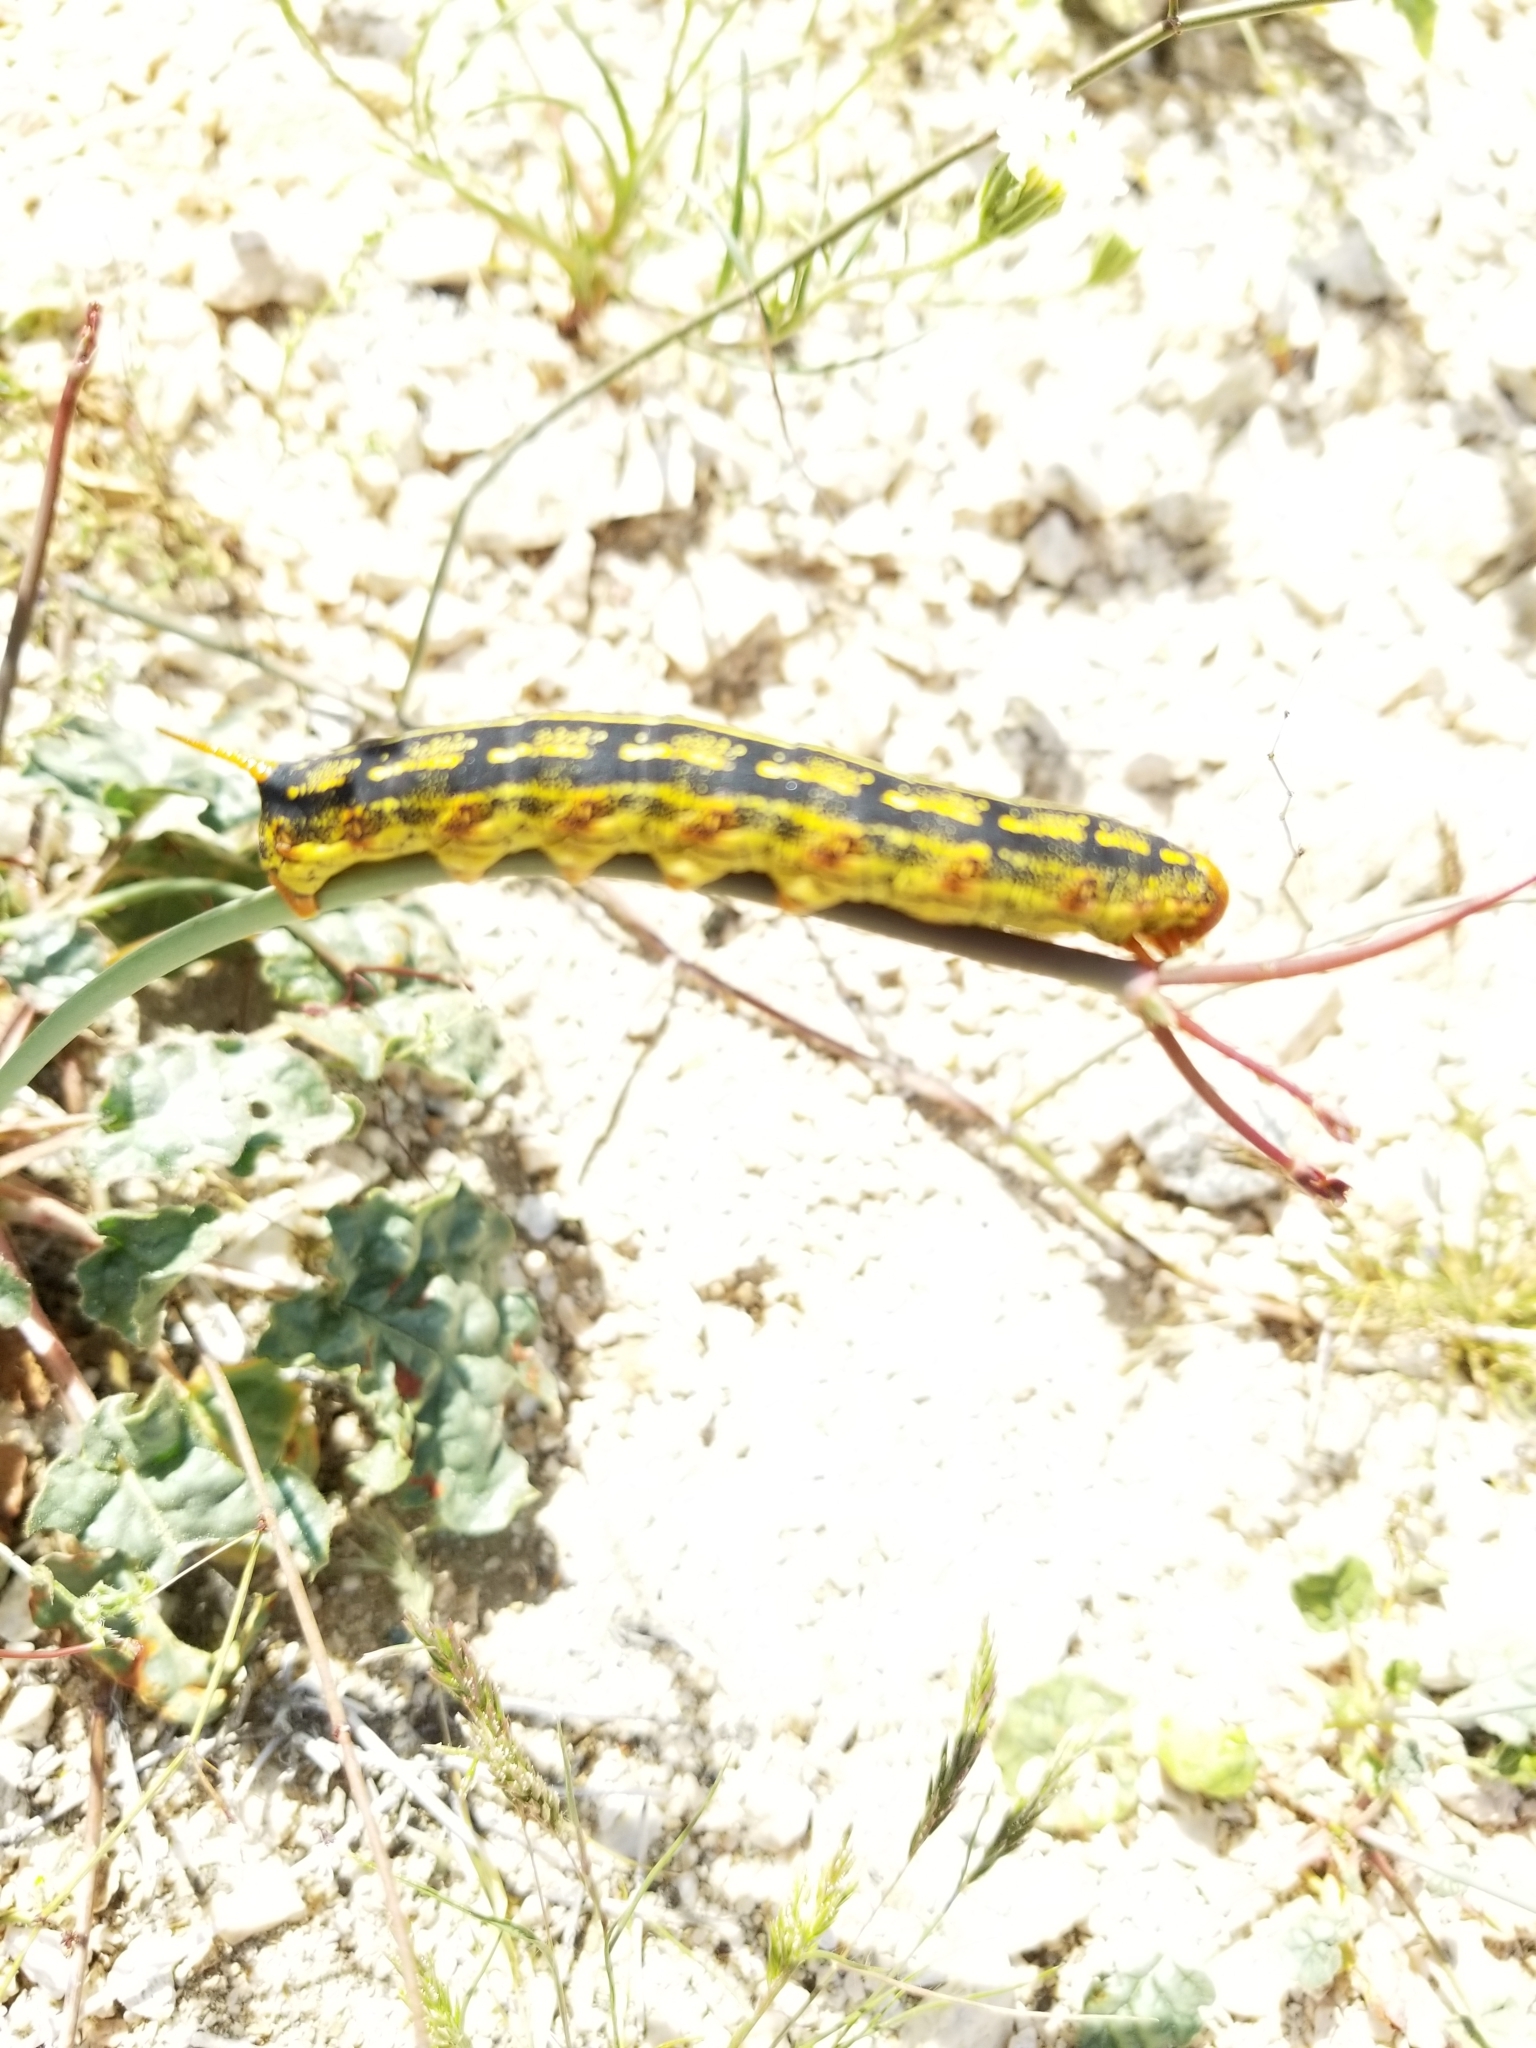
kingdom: Animalia
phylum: Arthropoda
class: Insecta
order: Lepidoptera
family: Sphingidae
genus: Hyles
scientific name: Hyles lineata
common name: White-lined sphinx
